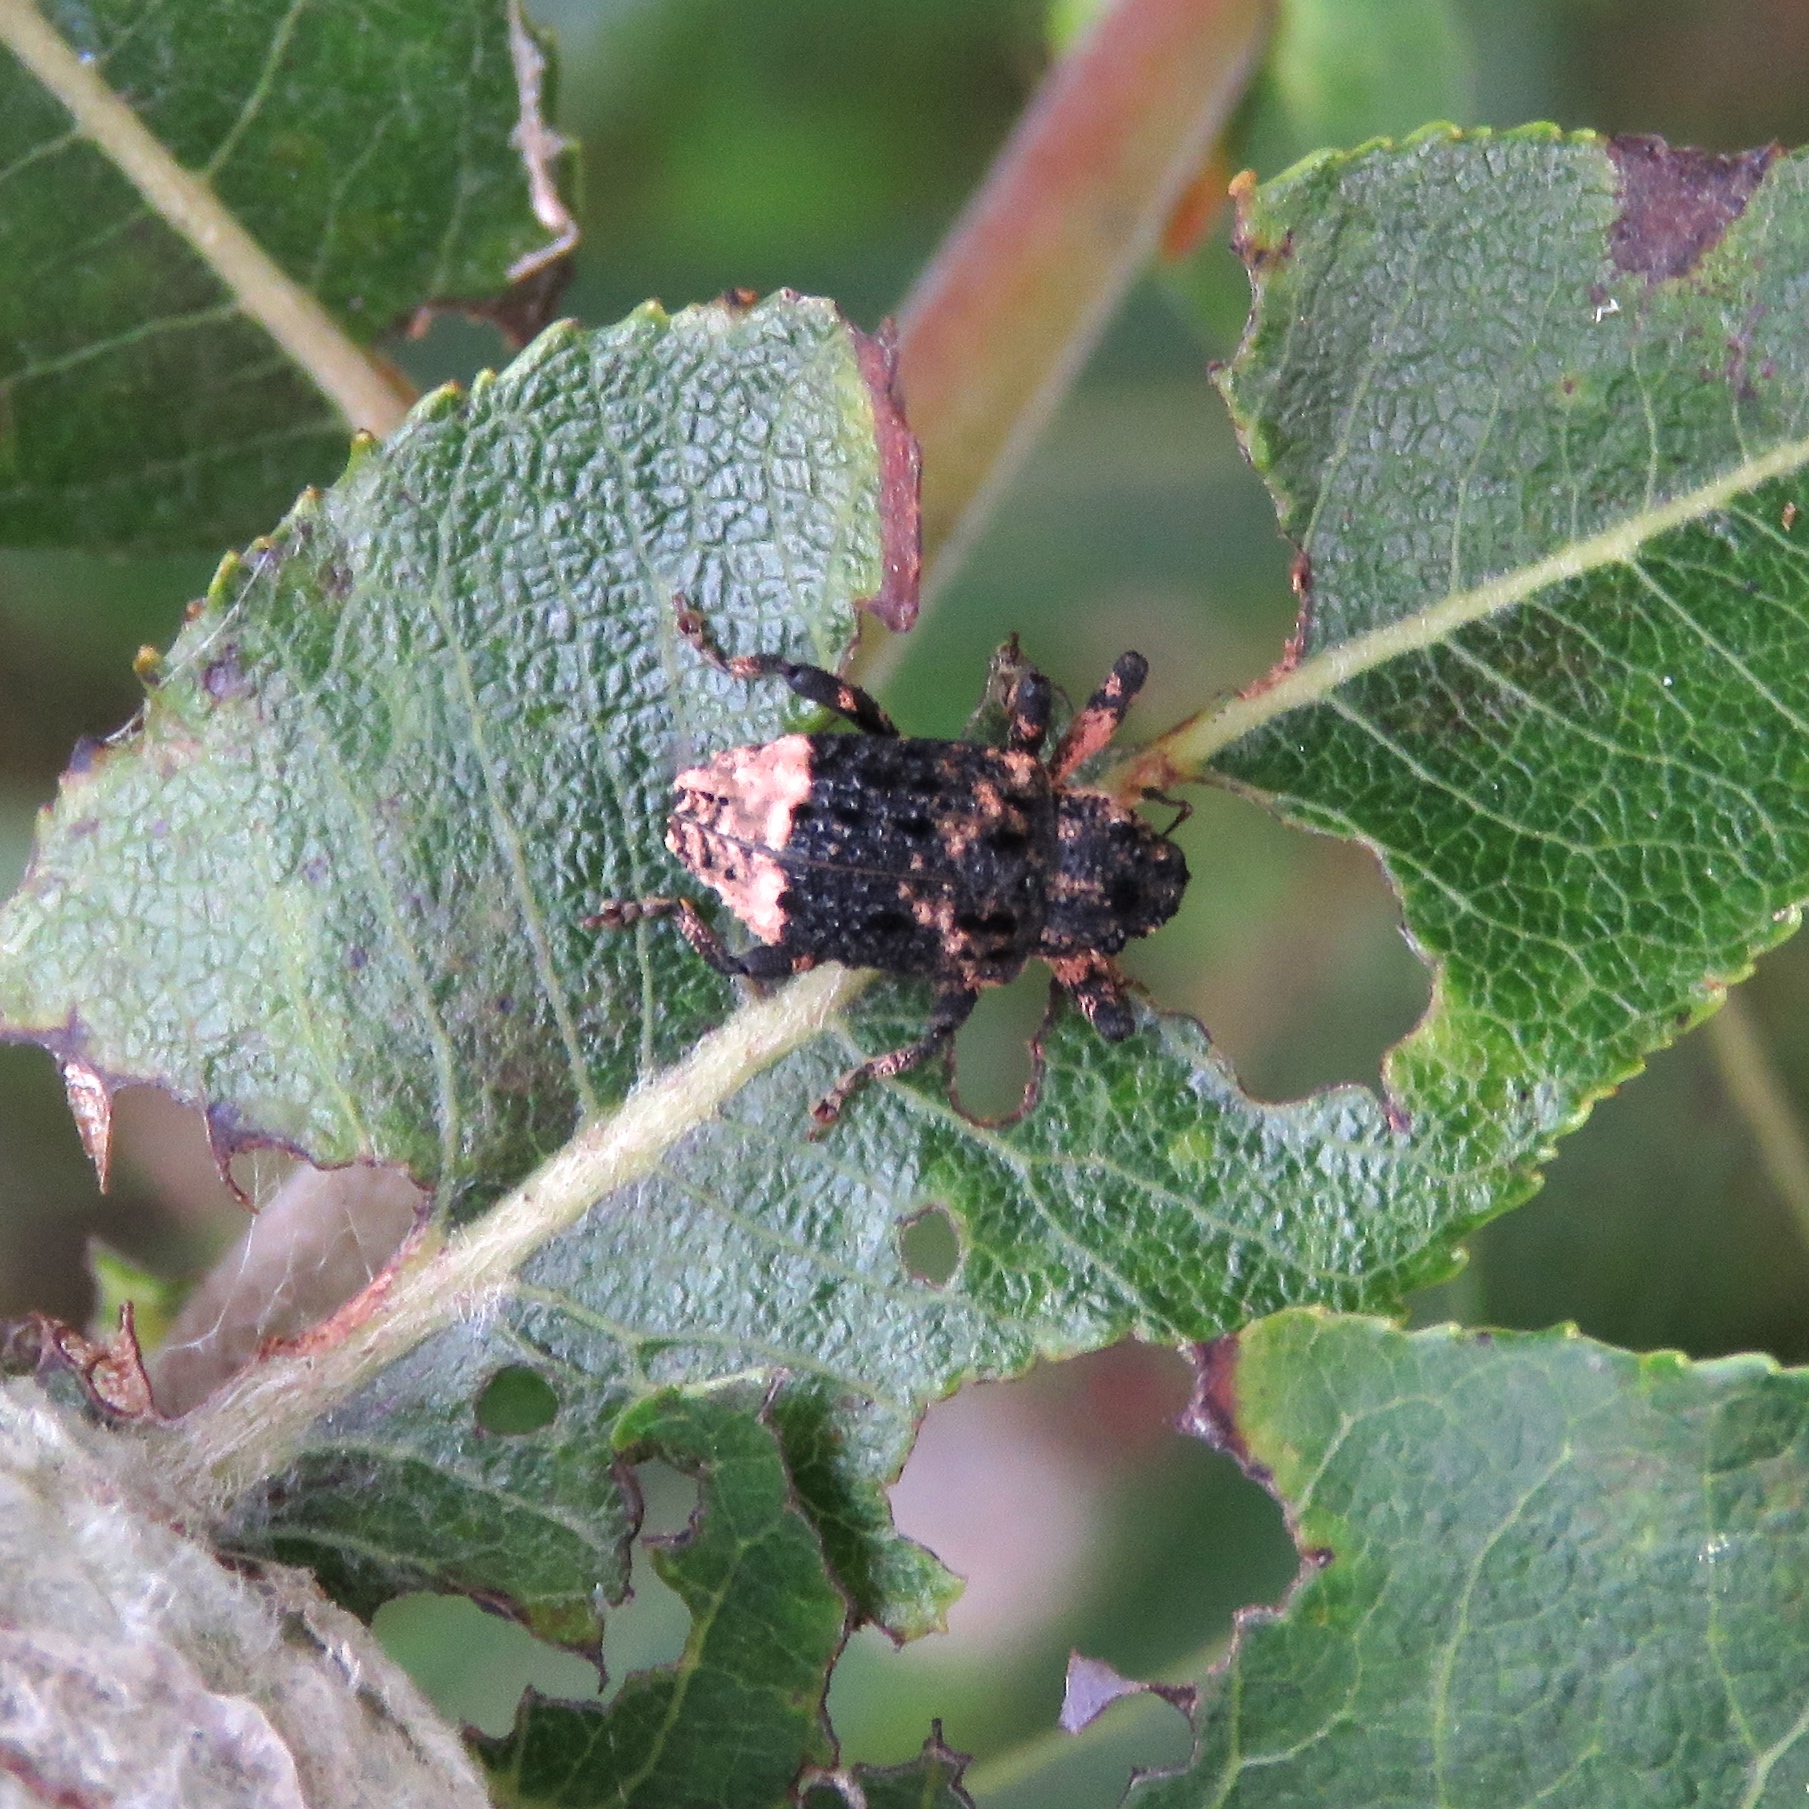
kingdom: Animalia
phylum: Arthropoda
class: Insecta
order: Coleoptera
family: Curculionidae
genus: Cryptorhynchus
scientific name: Cryptorhynchus lapathi
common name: Weevil
